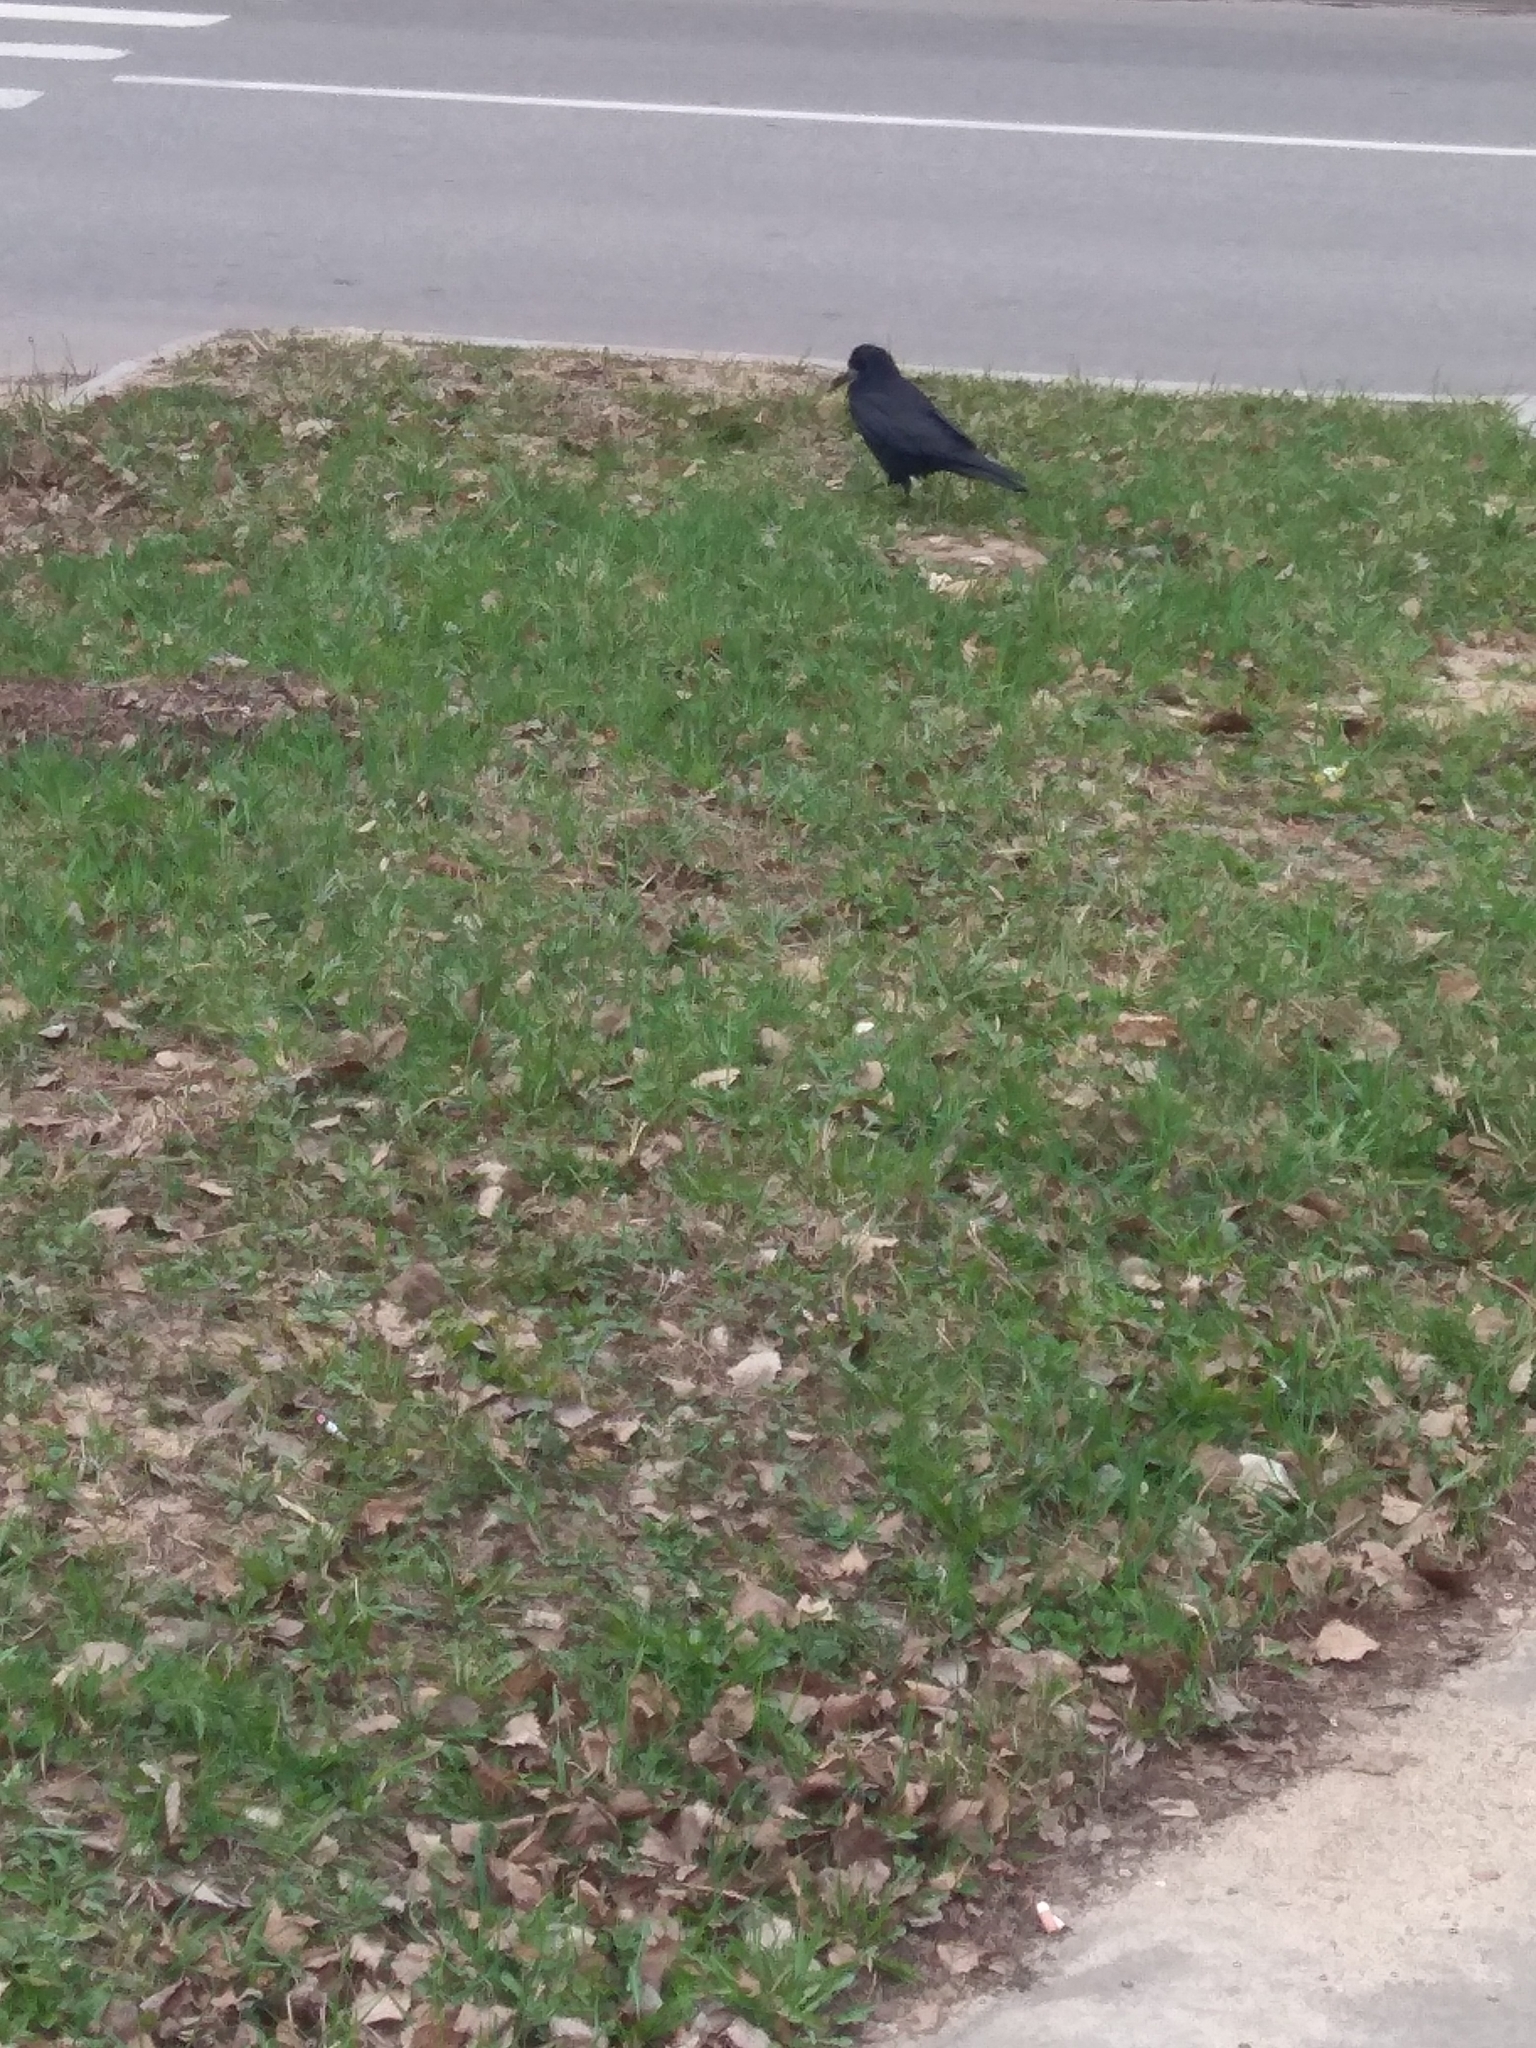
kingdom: Animalia
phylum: Chordata
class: Aves
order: Passeriformes
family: Corvidae
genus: Corvus
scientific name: Corvus frugilegus
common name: Rook
